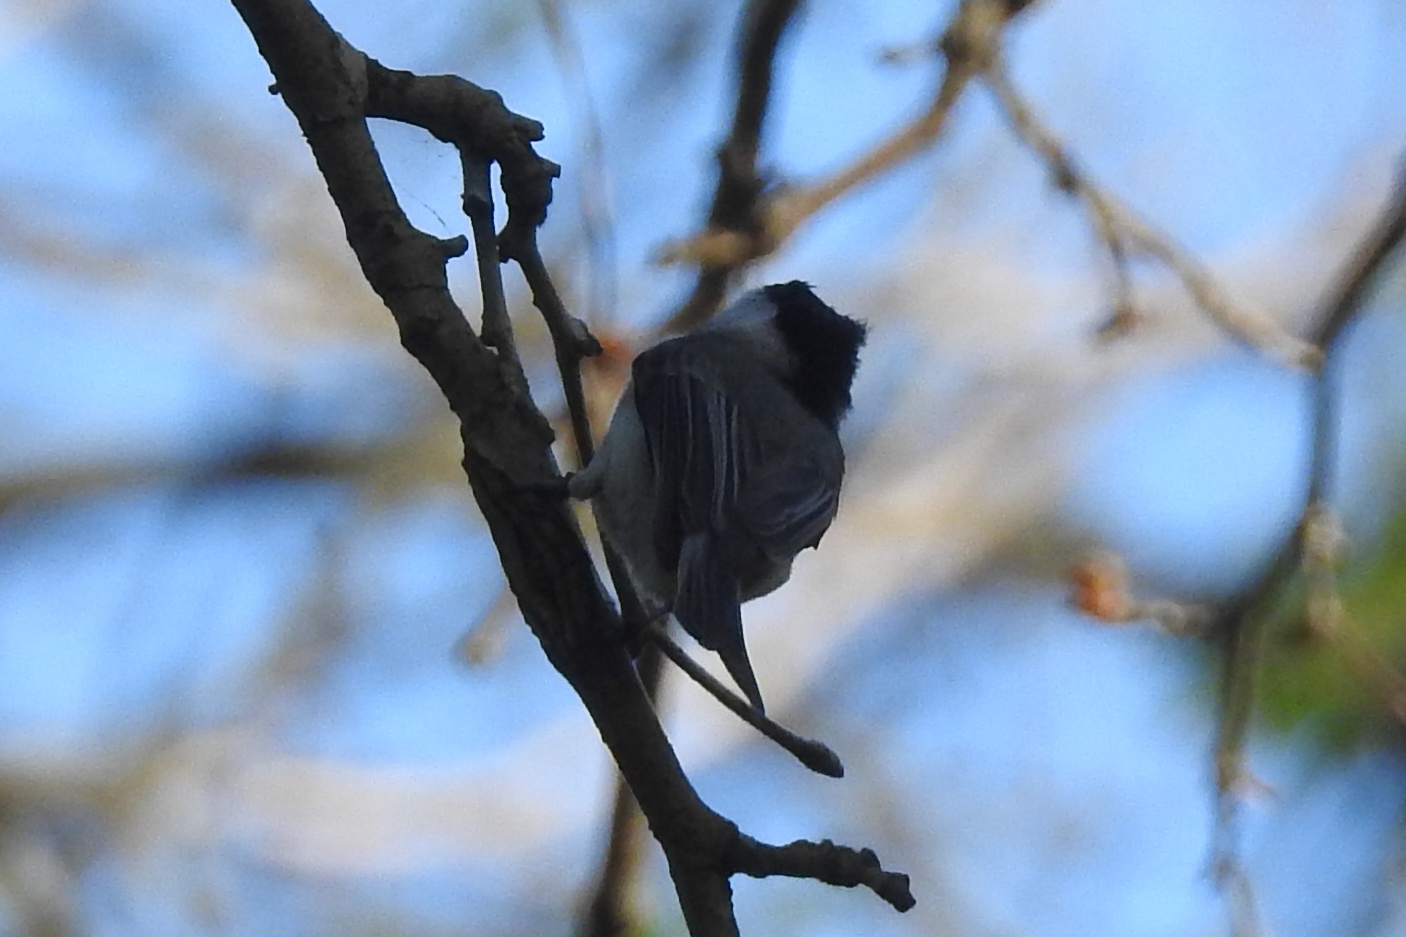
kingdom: Animalia
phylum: Chordata
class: Aves
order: Passeriformes
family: Paridae
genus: Poecile
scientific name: Poecile carolinensis
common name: Carolina chickadee
